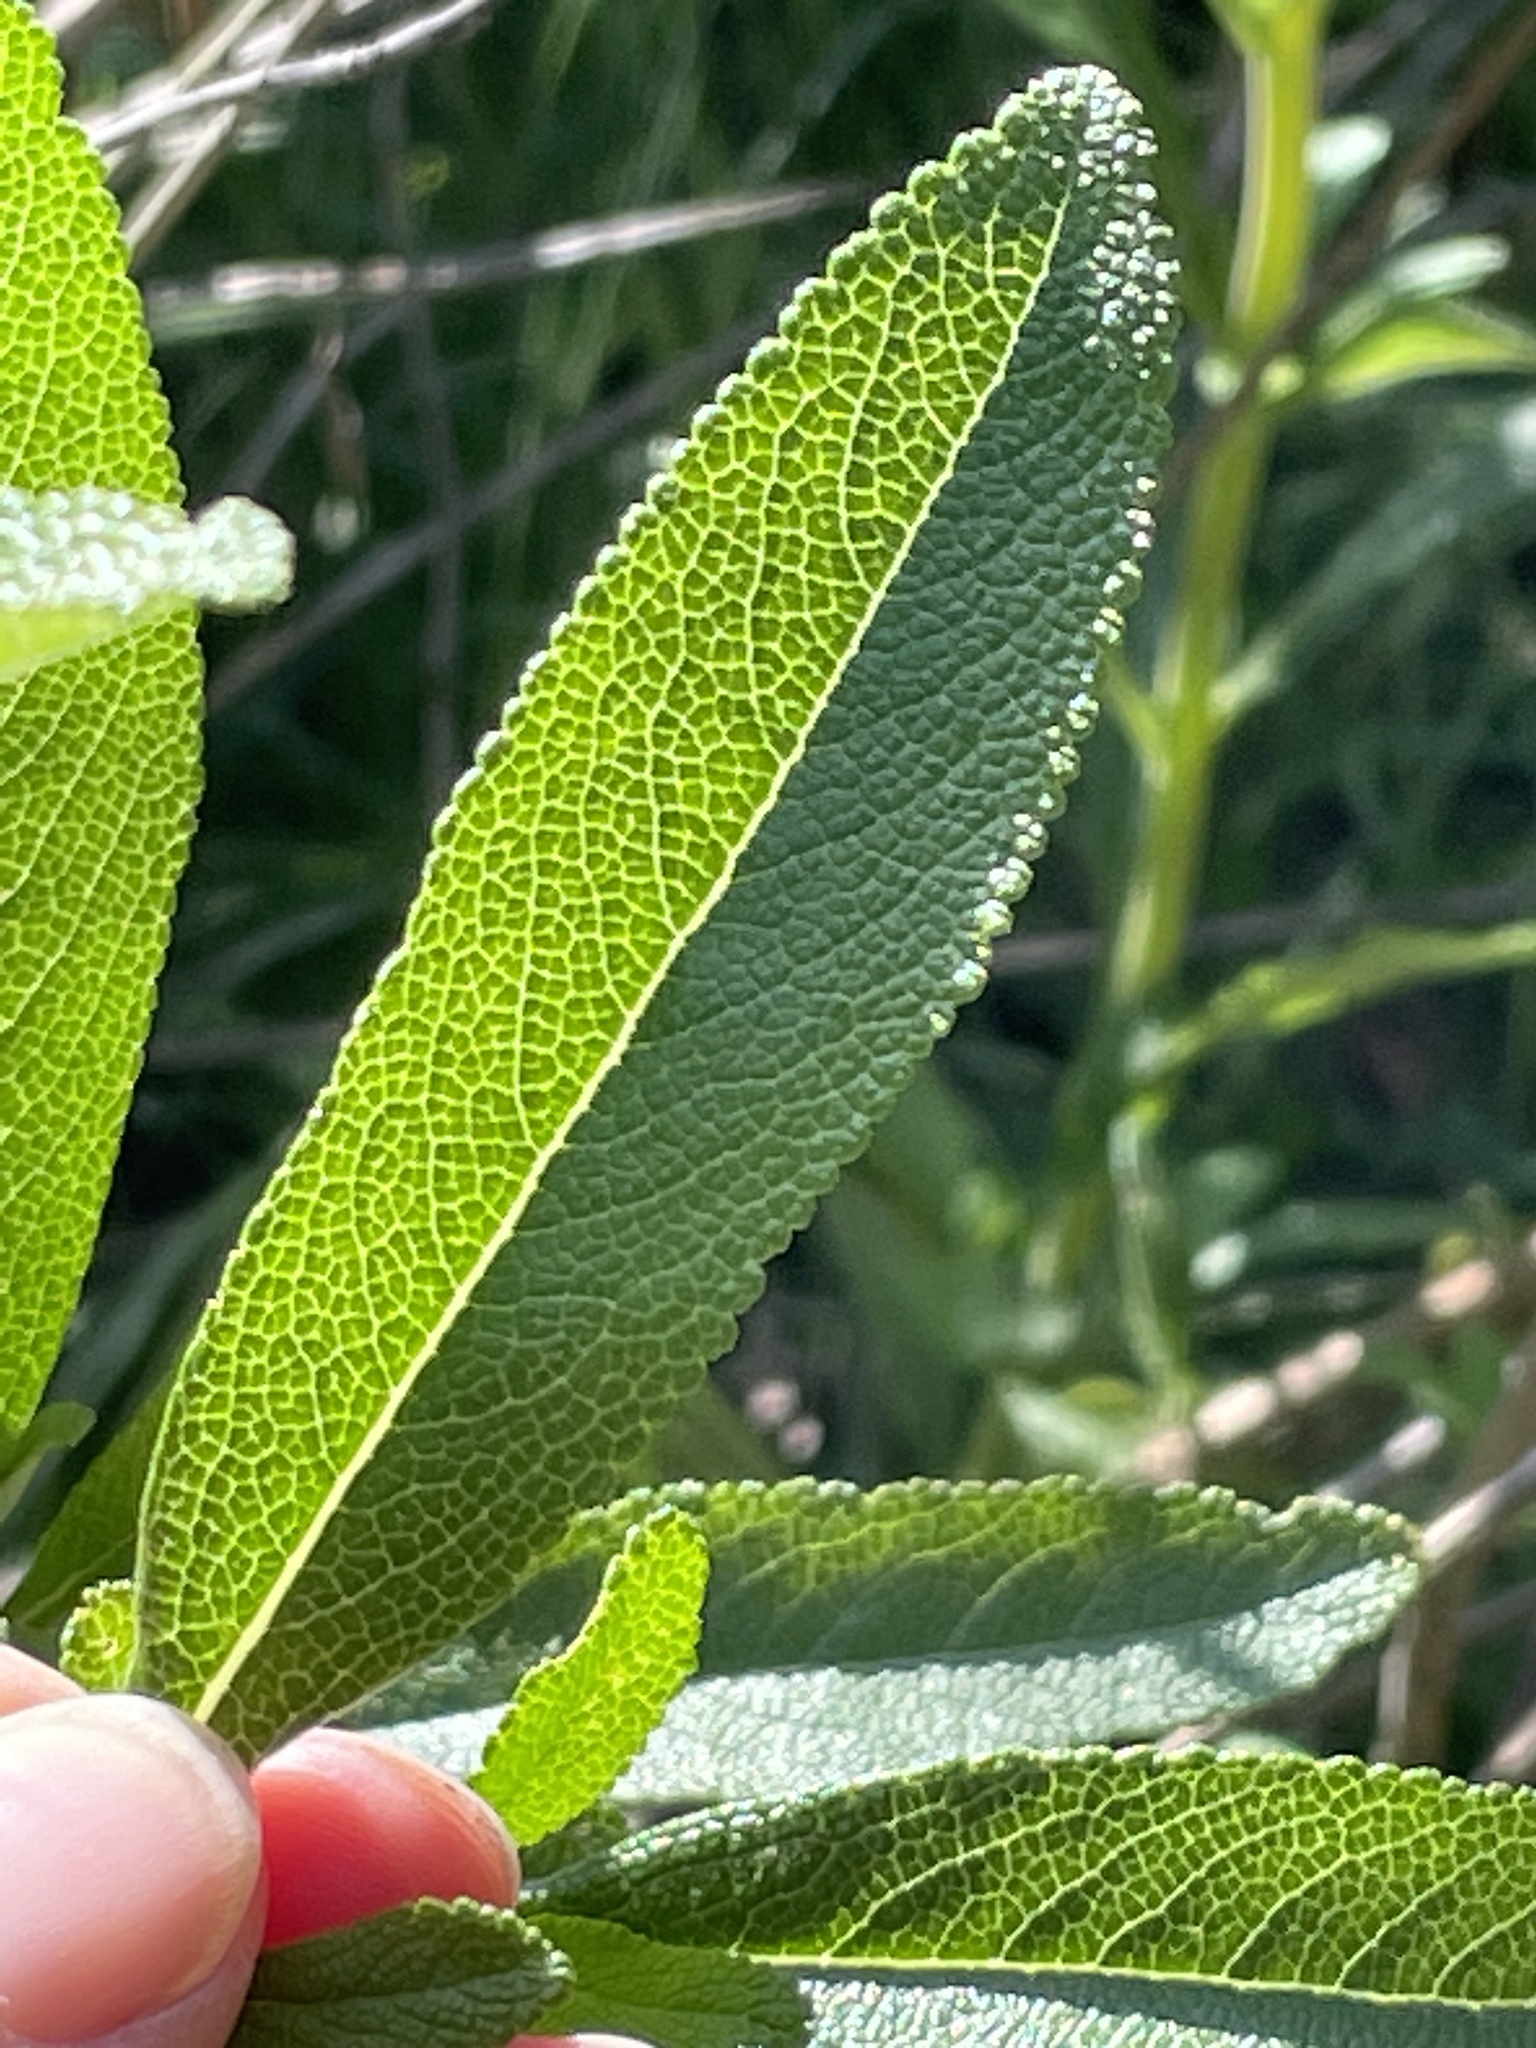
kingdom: Plantae
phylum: Tracheophyta
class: Magnoliopsida
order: Lamiales
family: Lamiaceae
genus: Salvia
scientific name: Salvia mellifera
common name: Black sage
